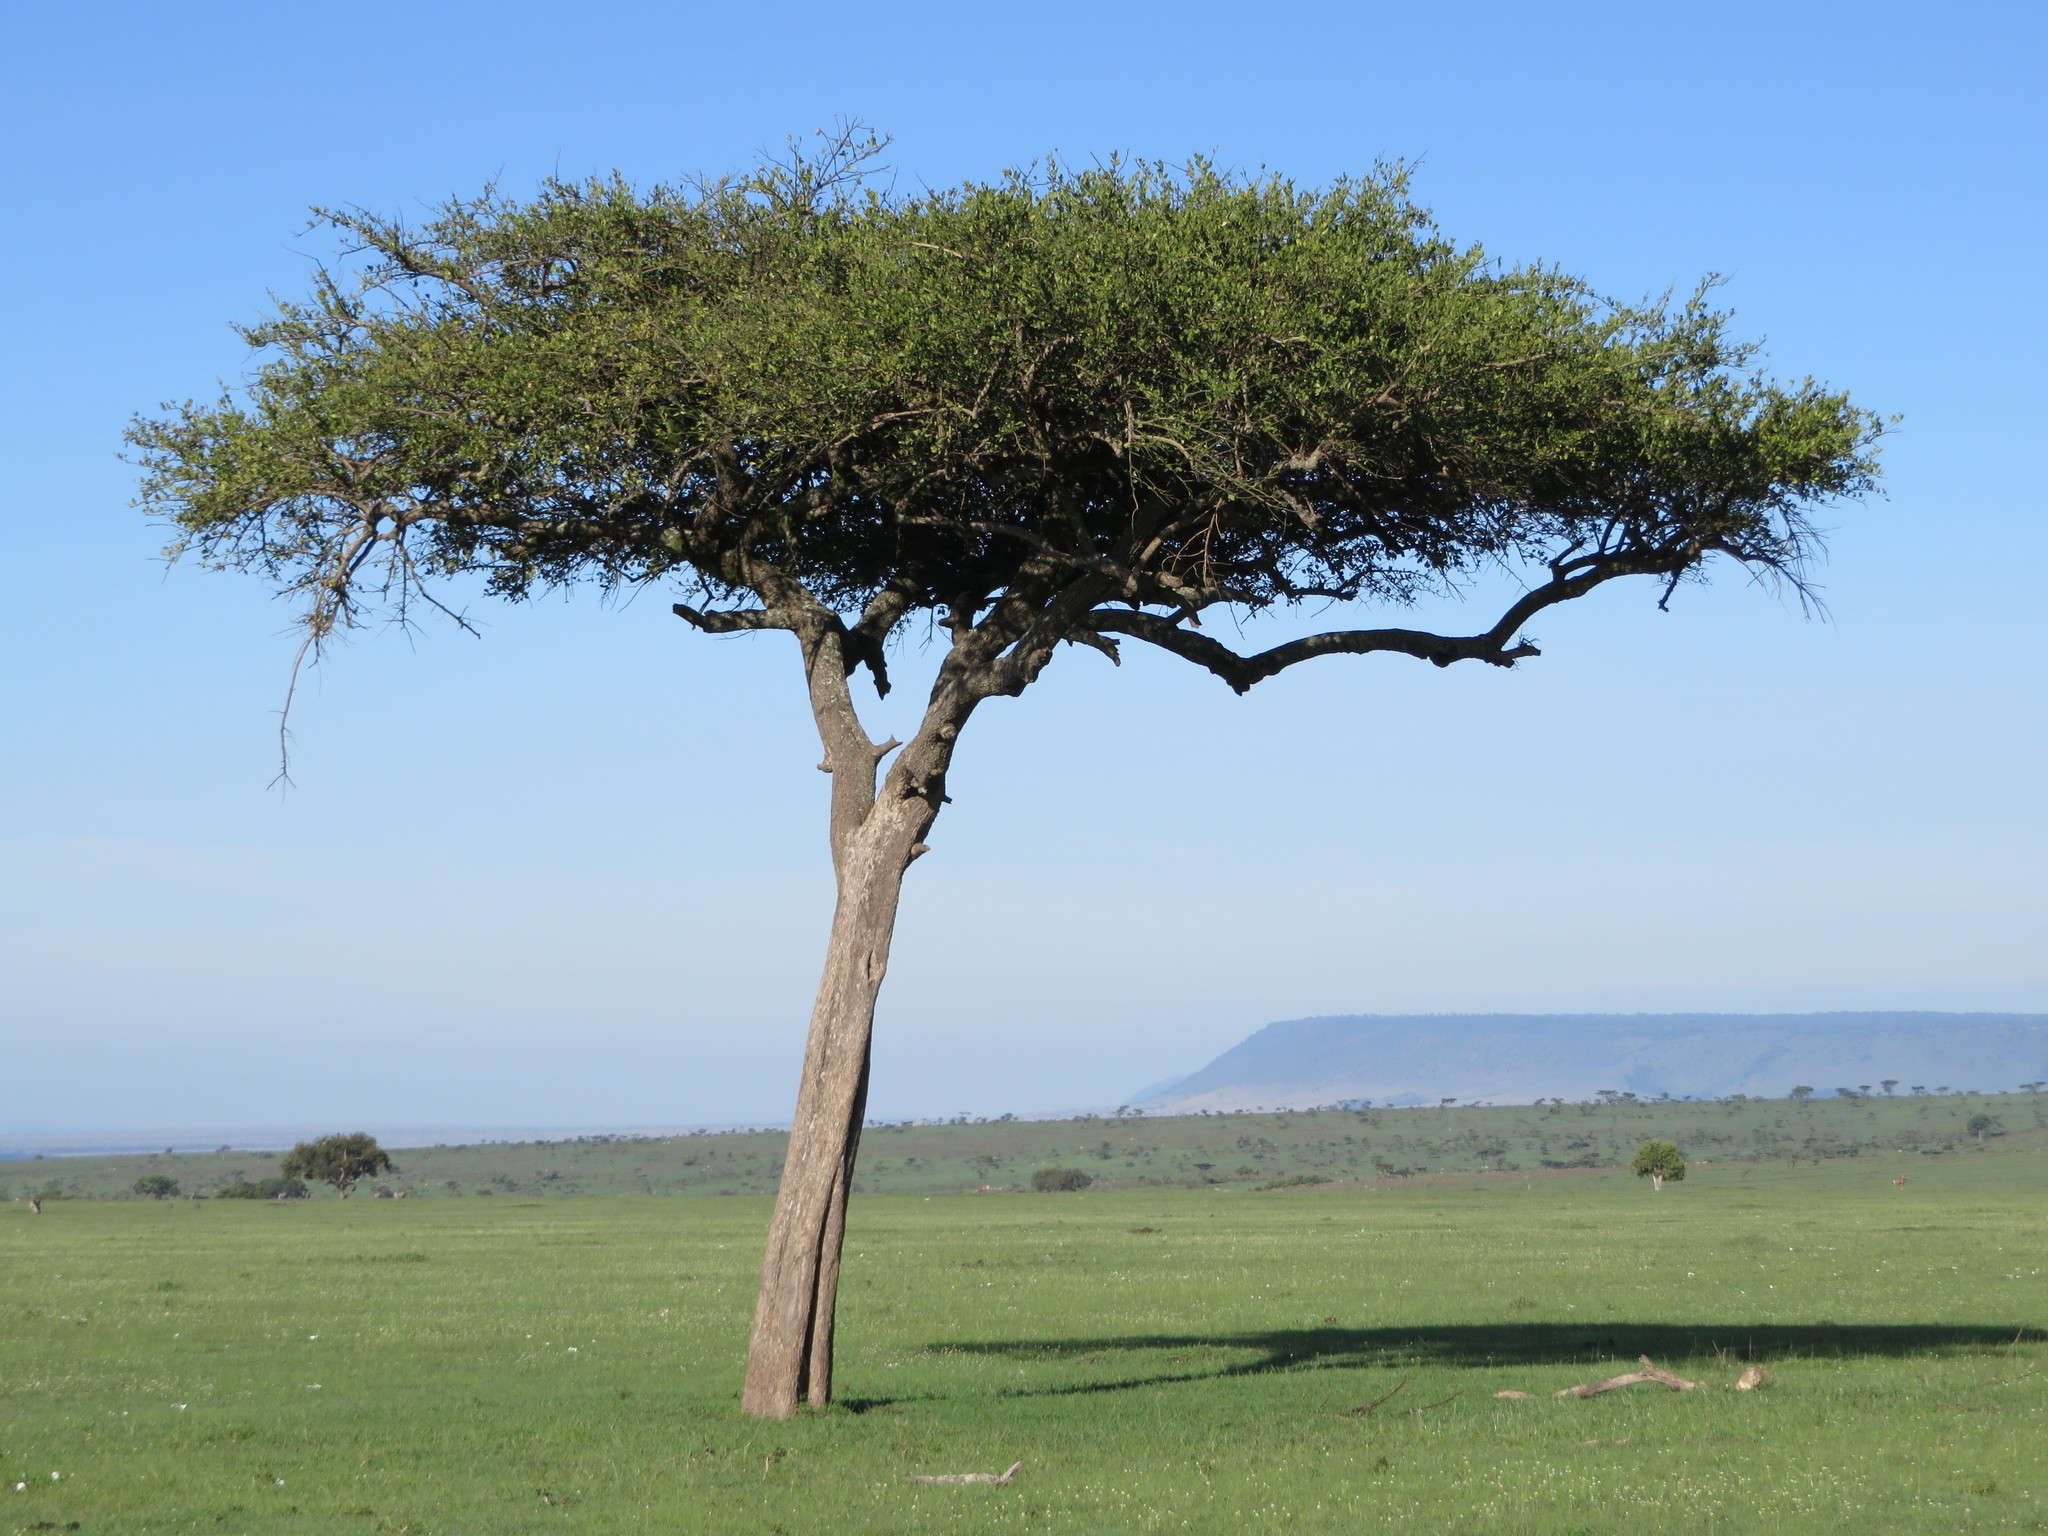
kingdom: Plantae
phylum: Tracheophyta
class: Magnoliopsida
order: Zygophyllales
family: Zygophyllaceae
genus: Balanites
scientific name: Balanites aegyptiaca
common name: Balanites
